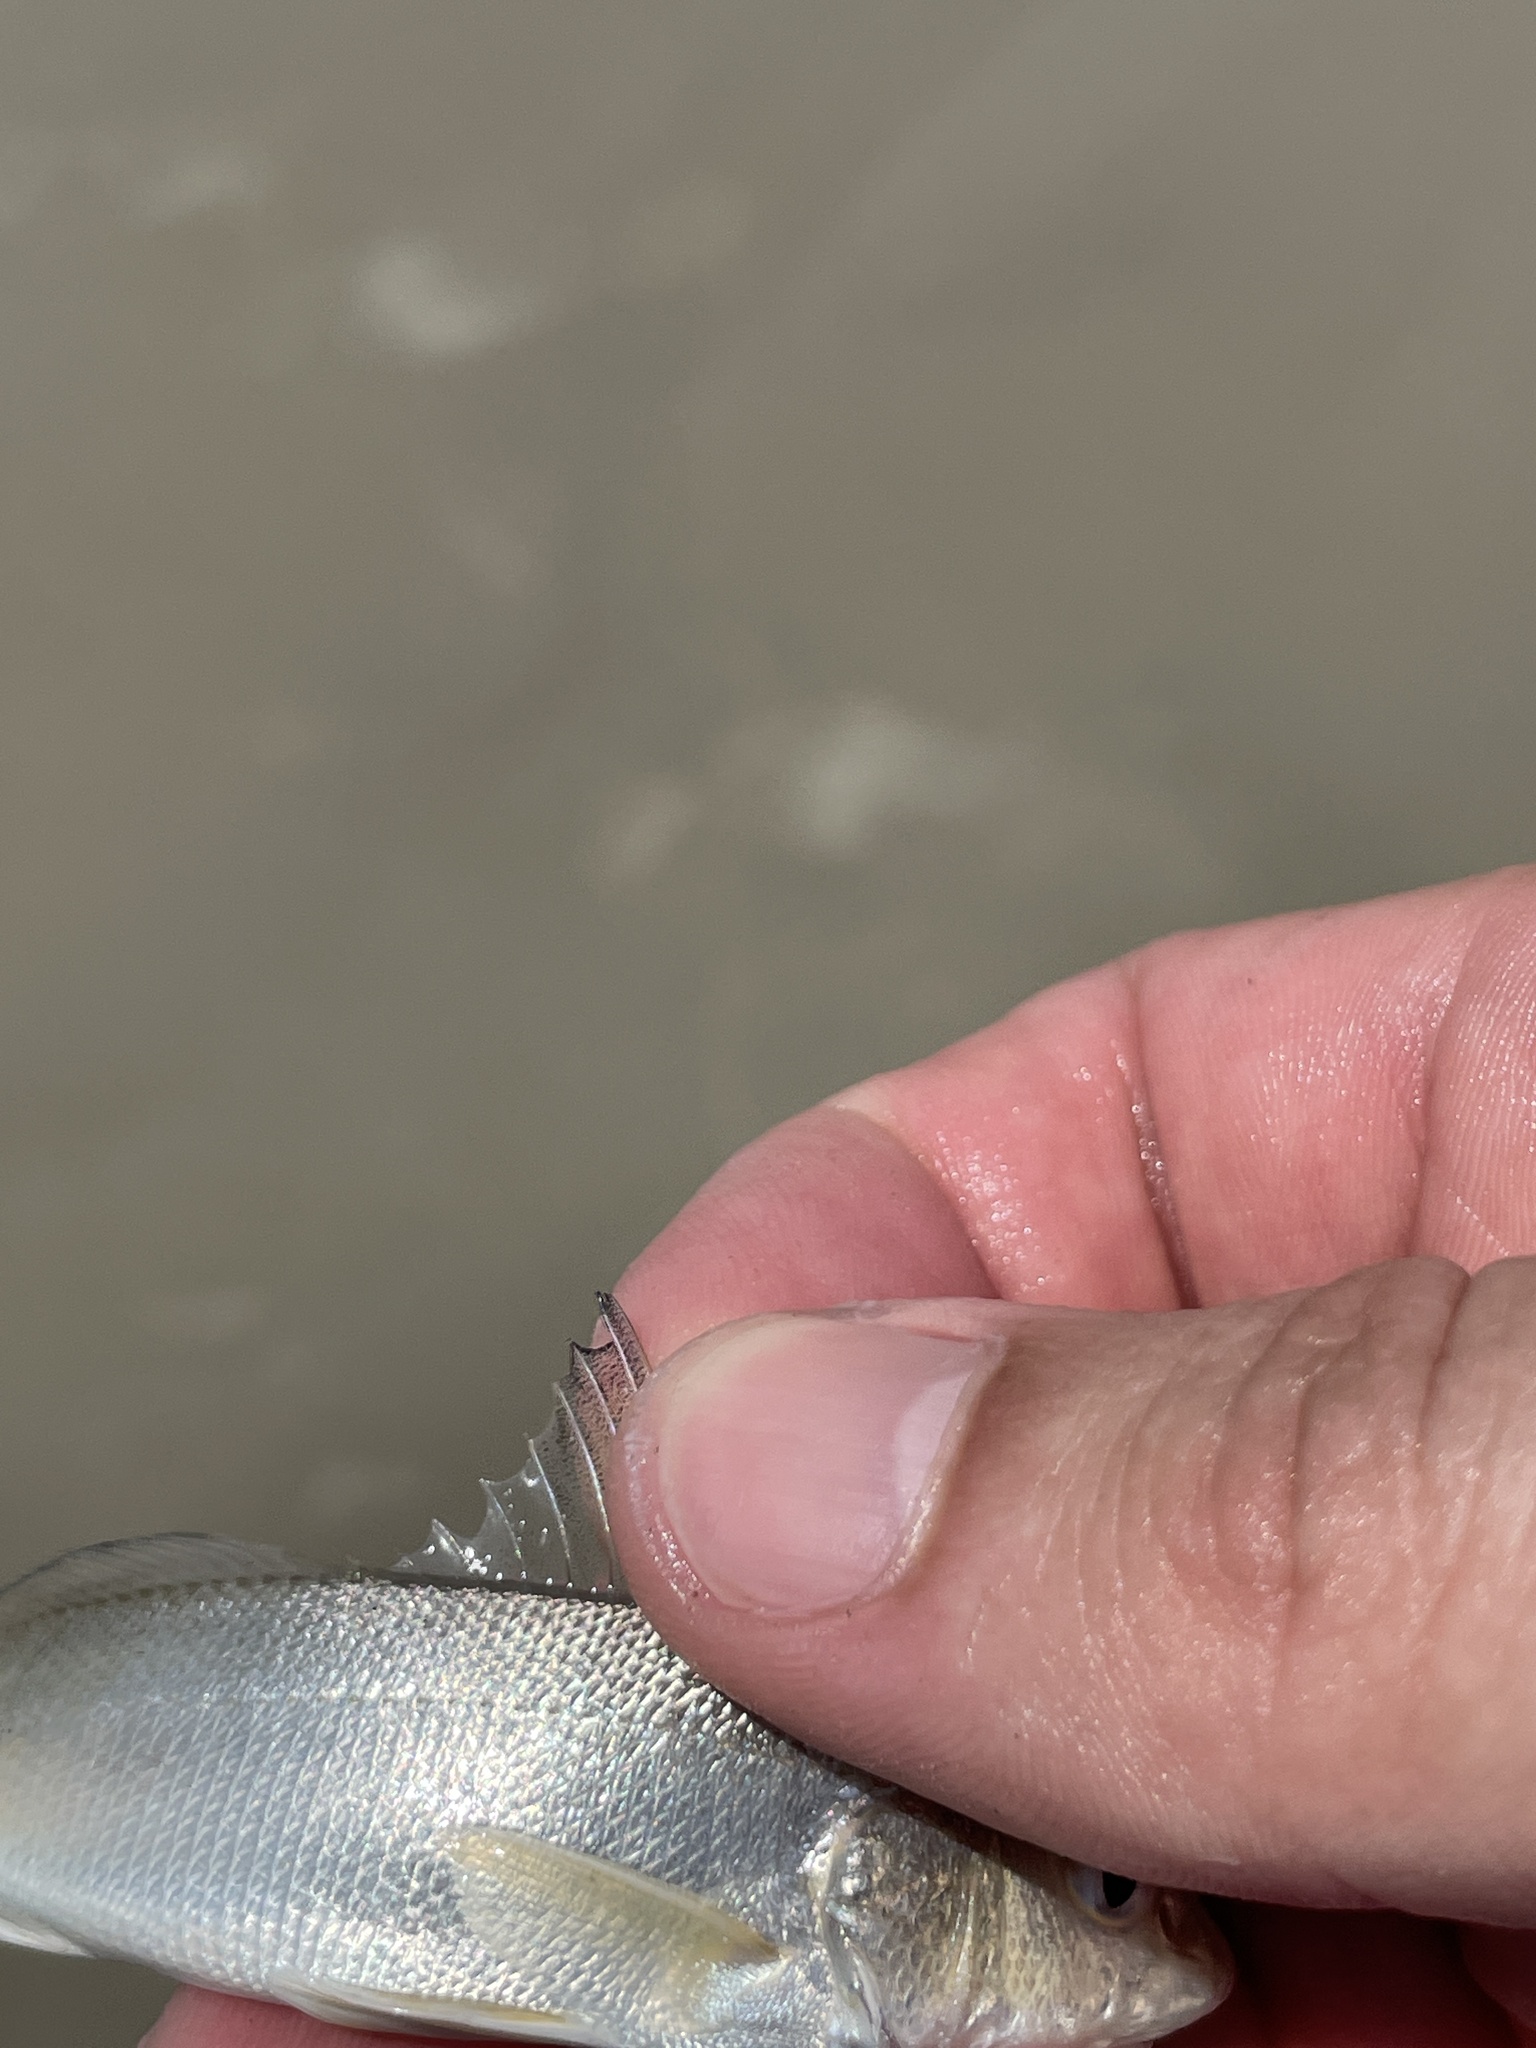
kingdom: Animalia
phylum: Chordata
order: Perciformes
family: Sciaenidae
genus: Menticirrhus
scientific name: Menticirrhus
